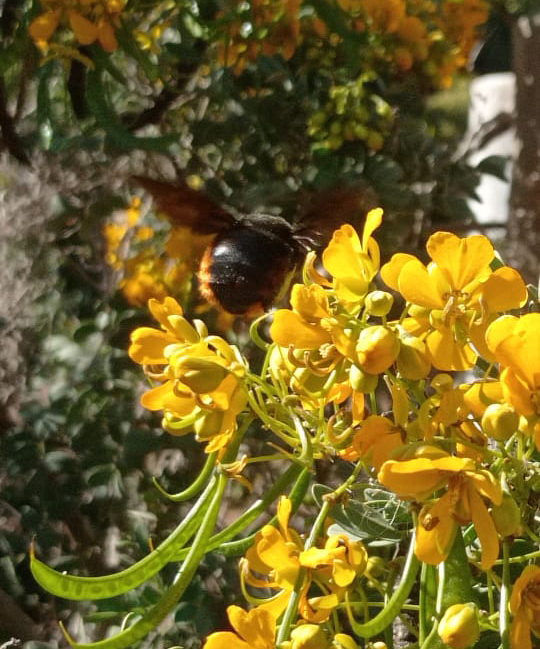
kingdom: Animalia
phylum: Arthropoda
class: Insecta
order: Hymenoptera
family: Apidae
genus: Xylocopa
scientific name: Xylocopa augusti
